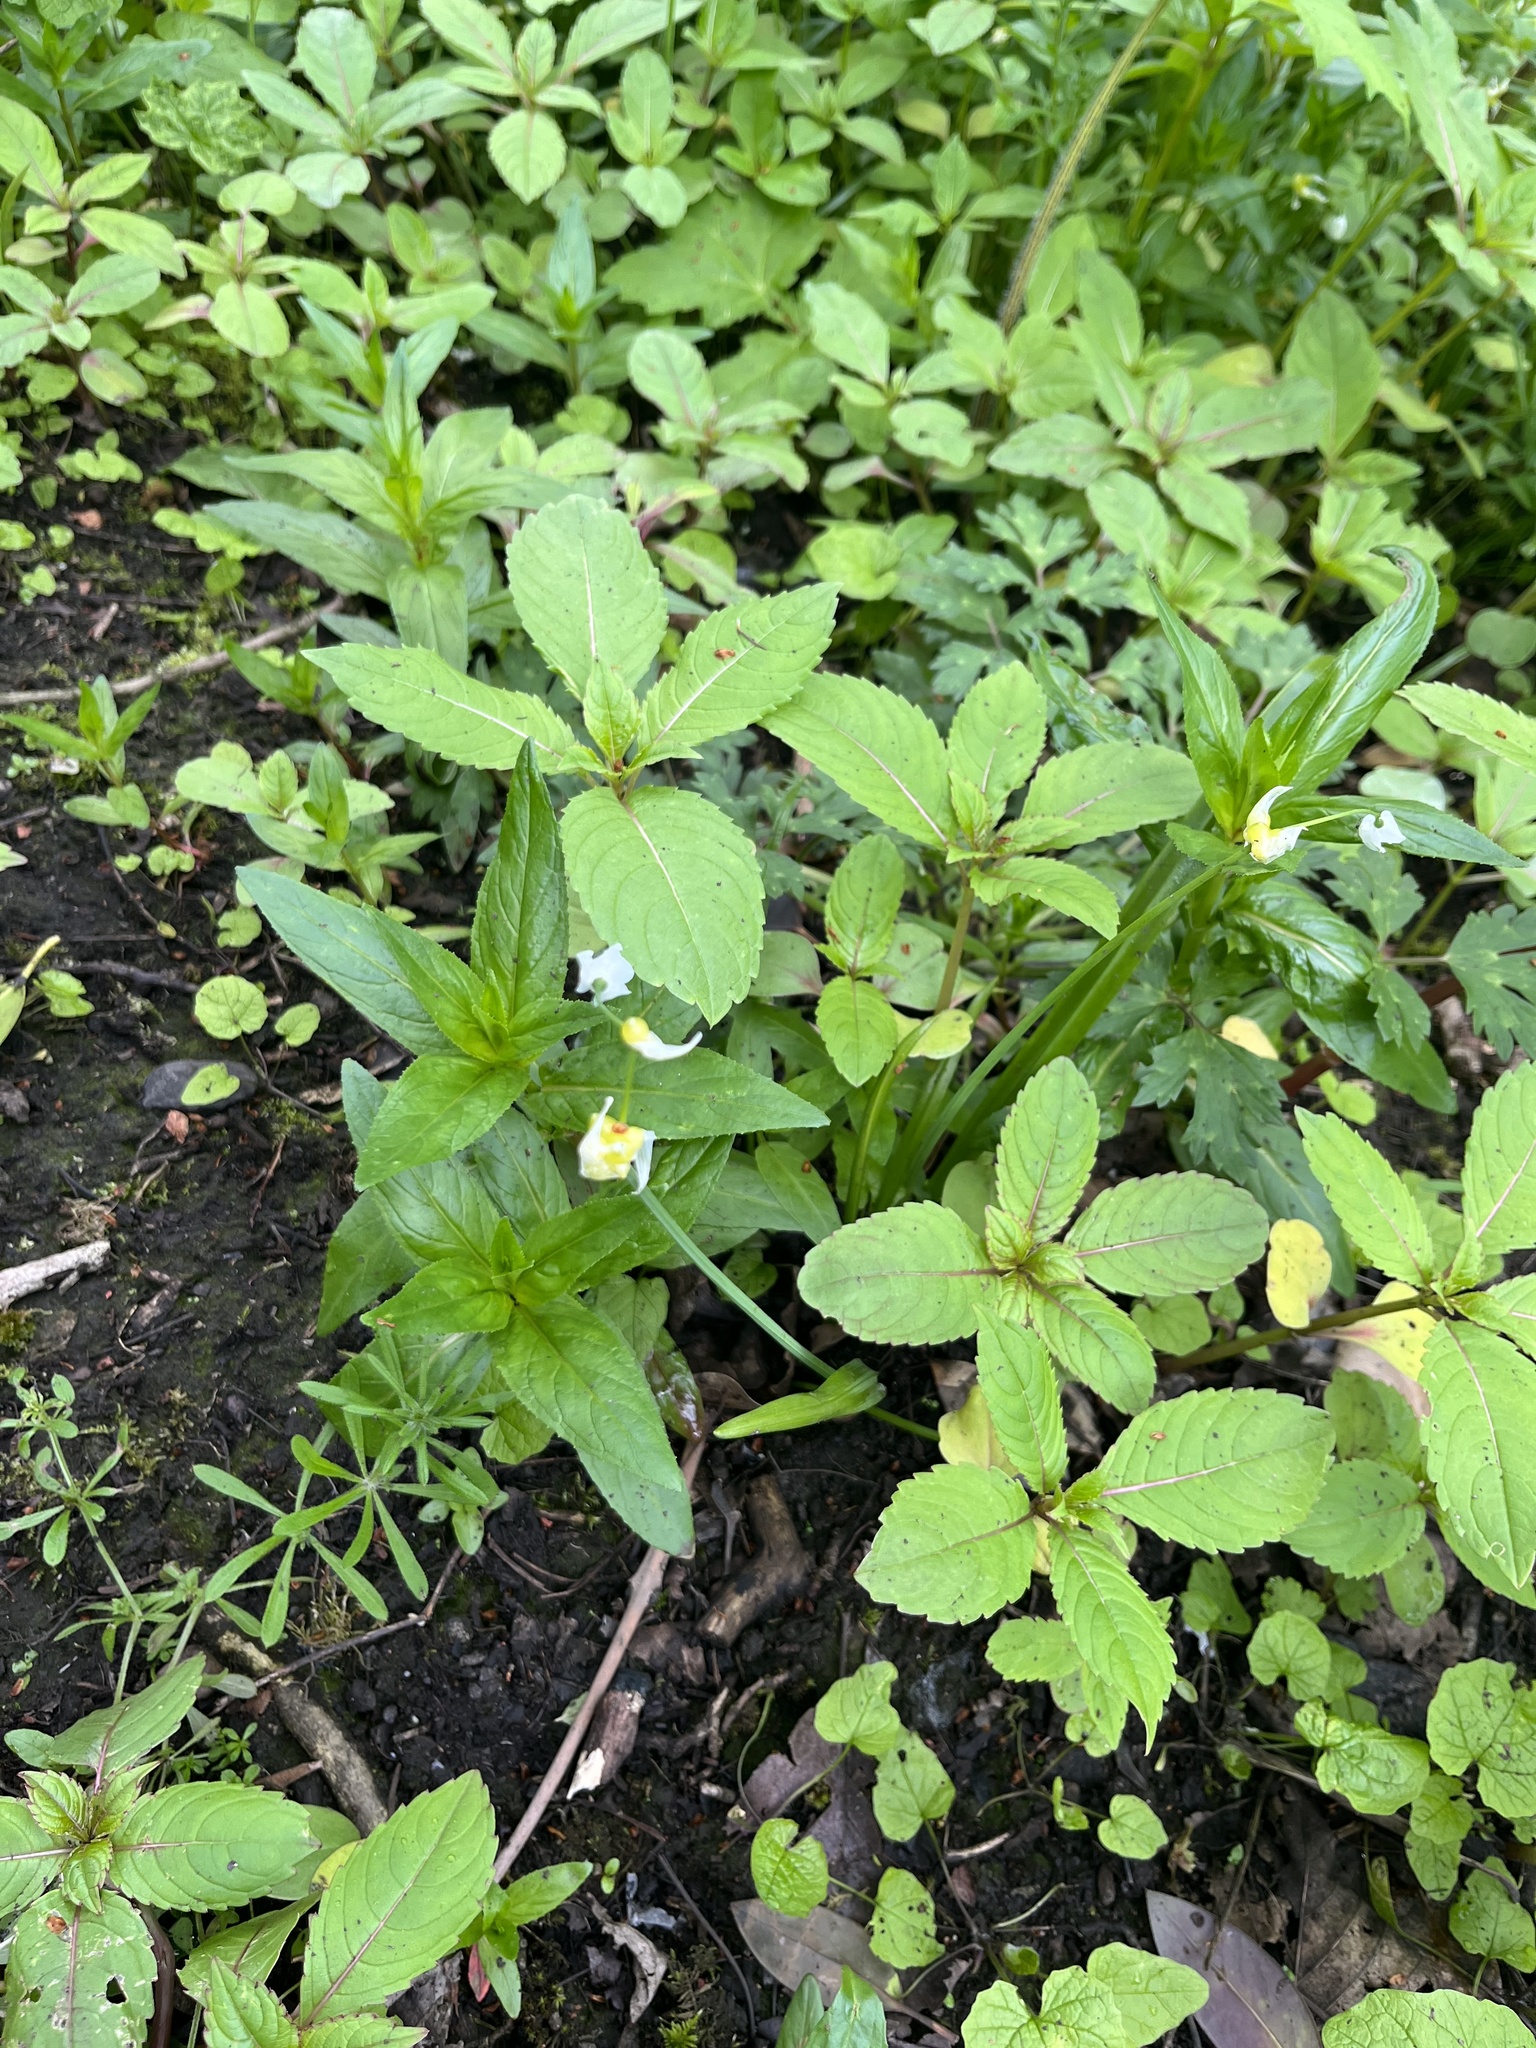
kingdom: Plantae
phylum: Tracheophyta
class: Liliopsida
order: Asparagales
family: Amaryllidaceae
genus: Allium
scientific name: Allium paradoxum
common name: Few-flowered garlic
